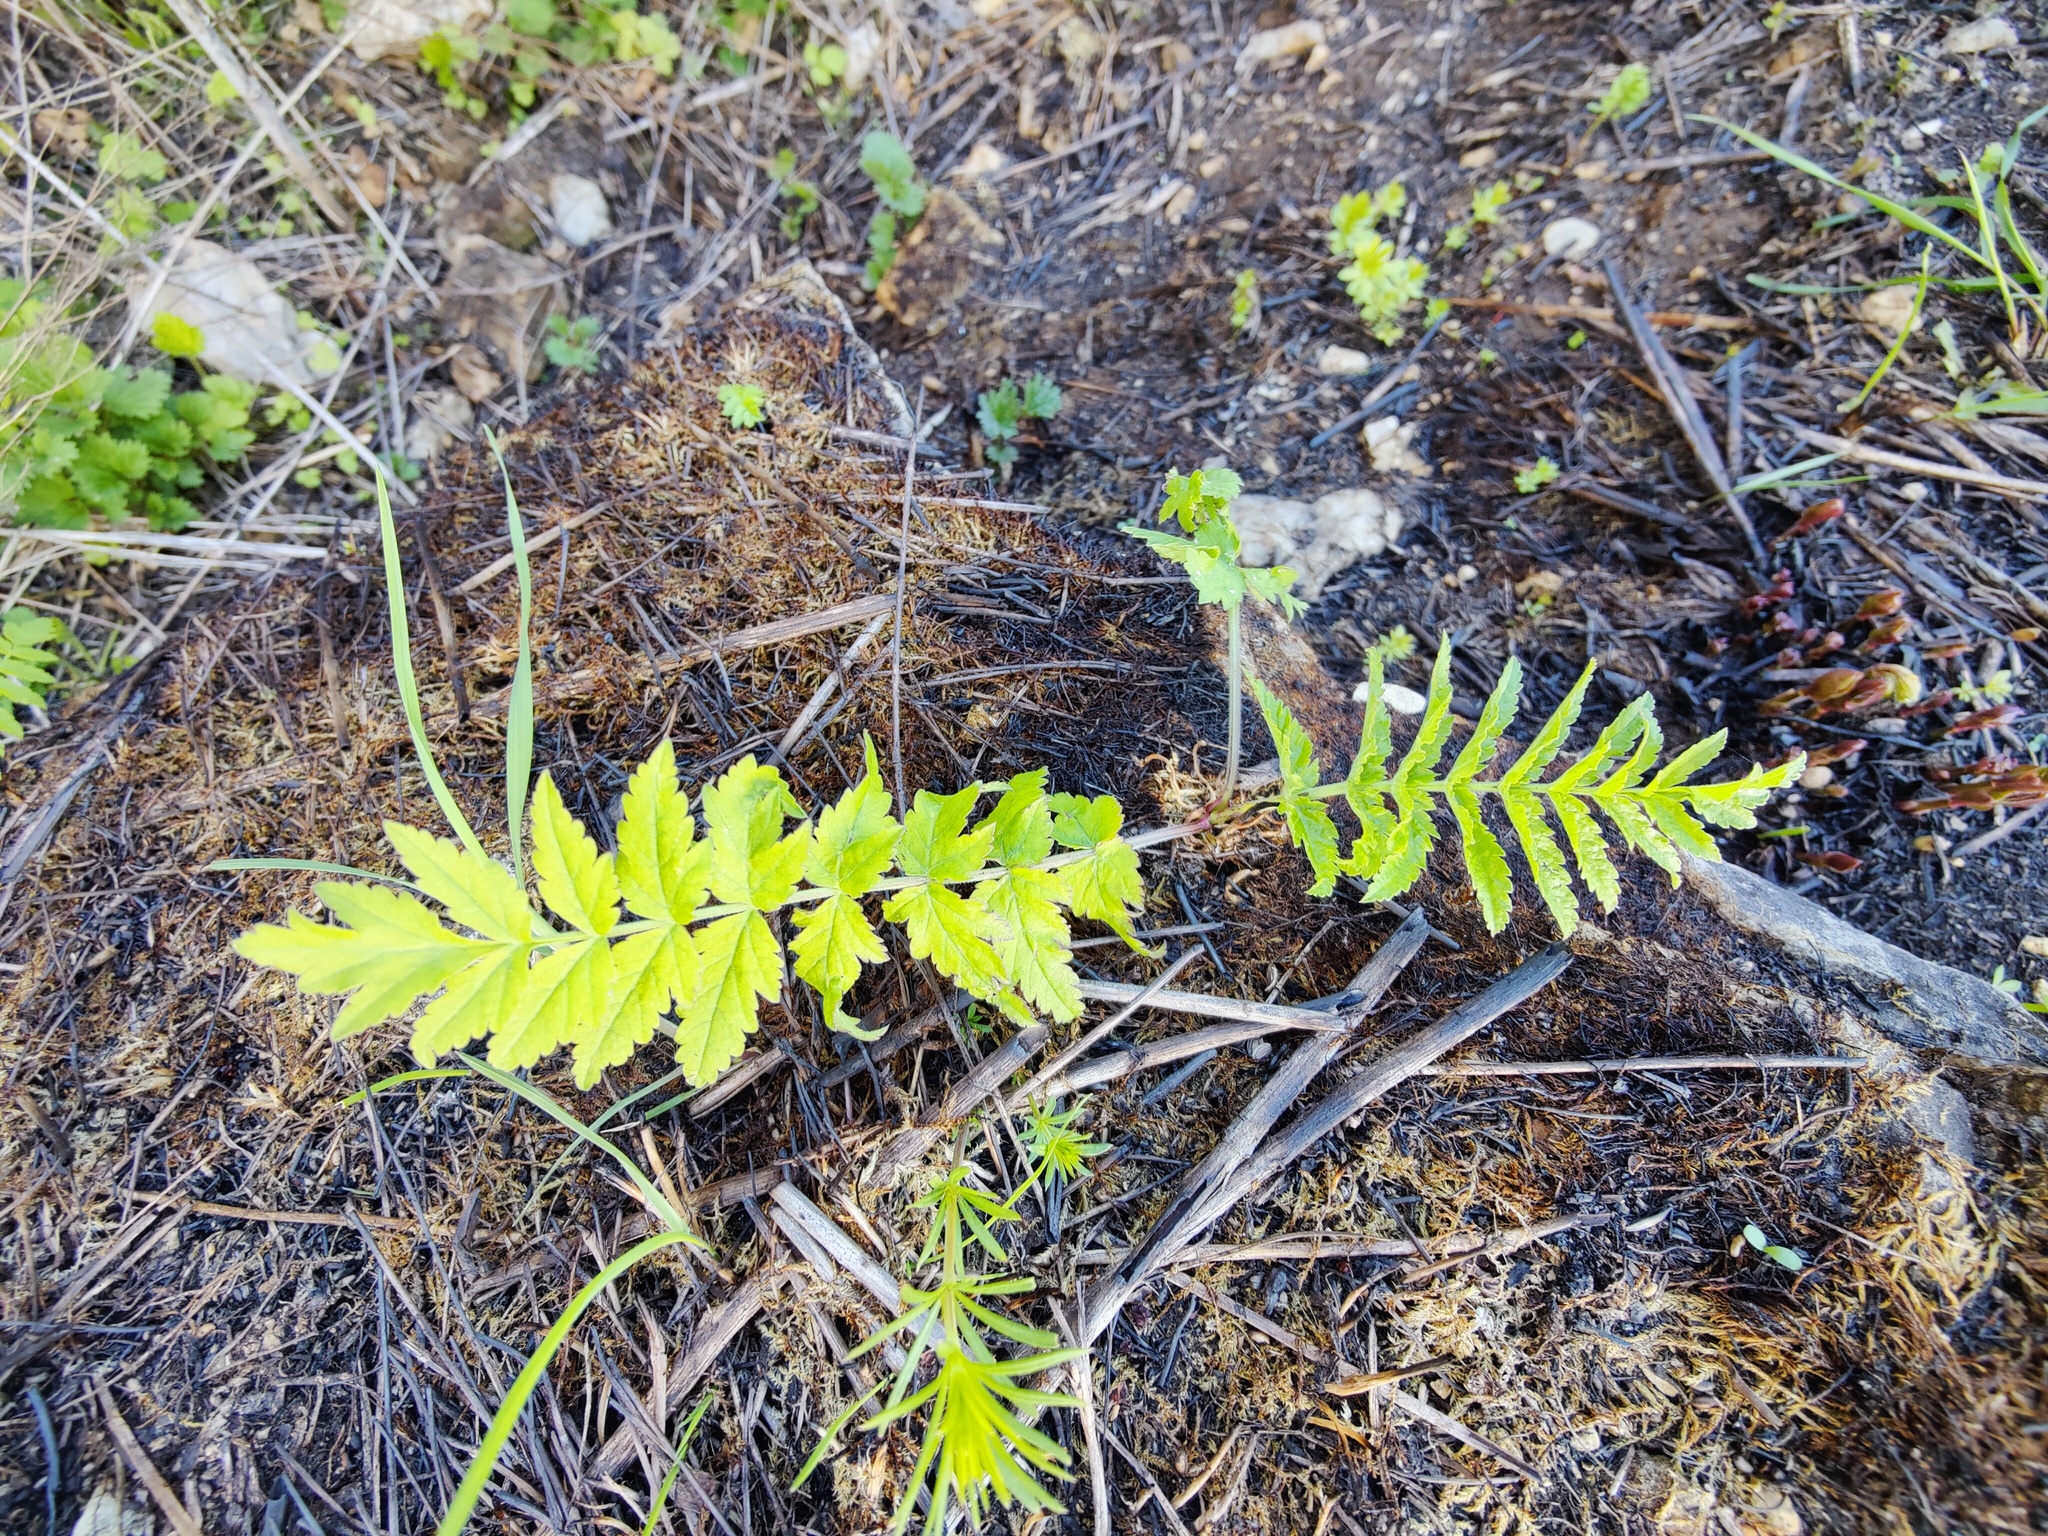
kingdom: Plantae
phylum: Tracheophyta
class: Magnoliopsida
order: Apiales
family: Apiaceae
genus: Pastinaca
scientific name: Pastinaca sativa
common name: Wild parsnip
